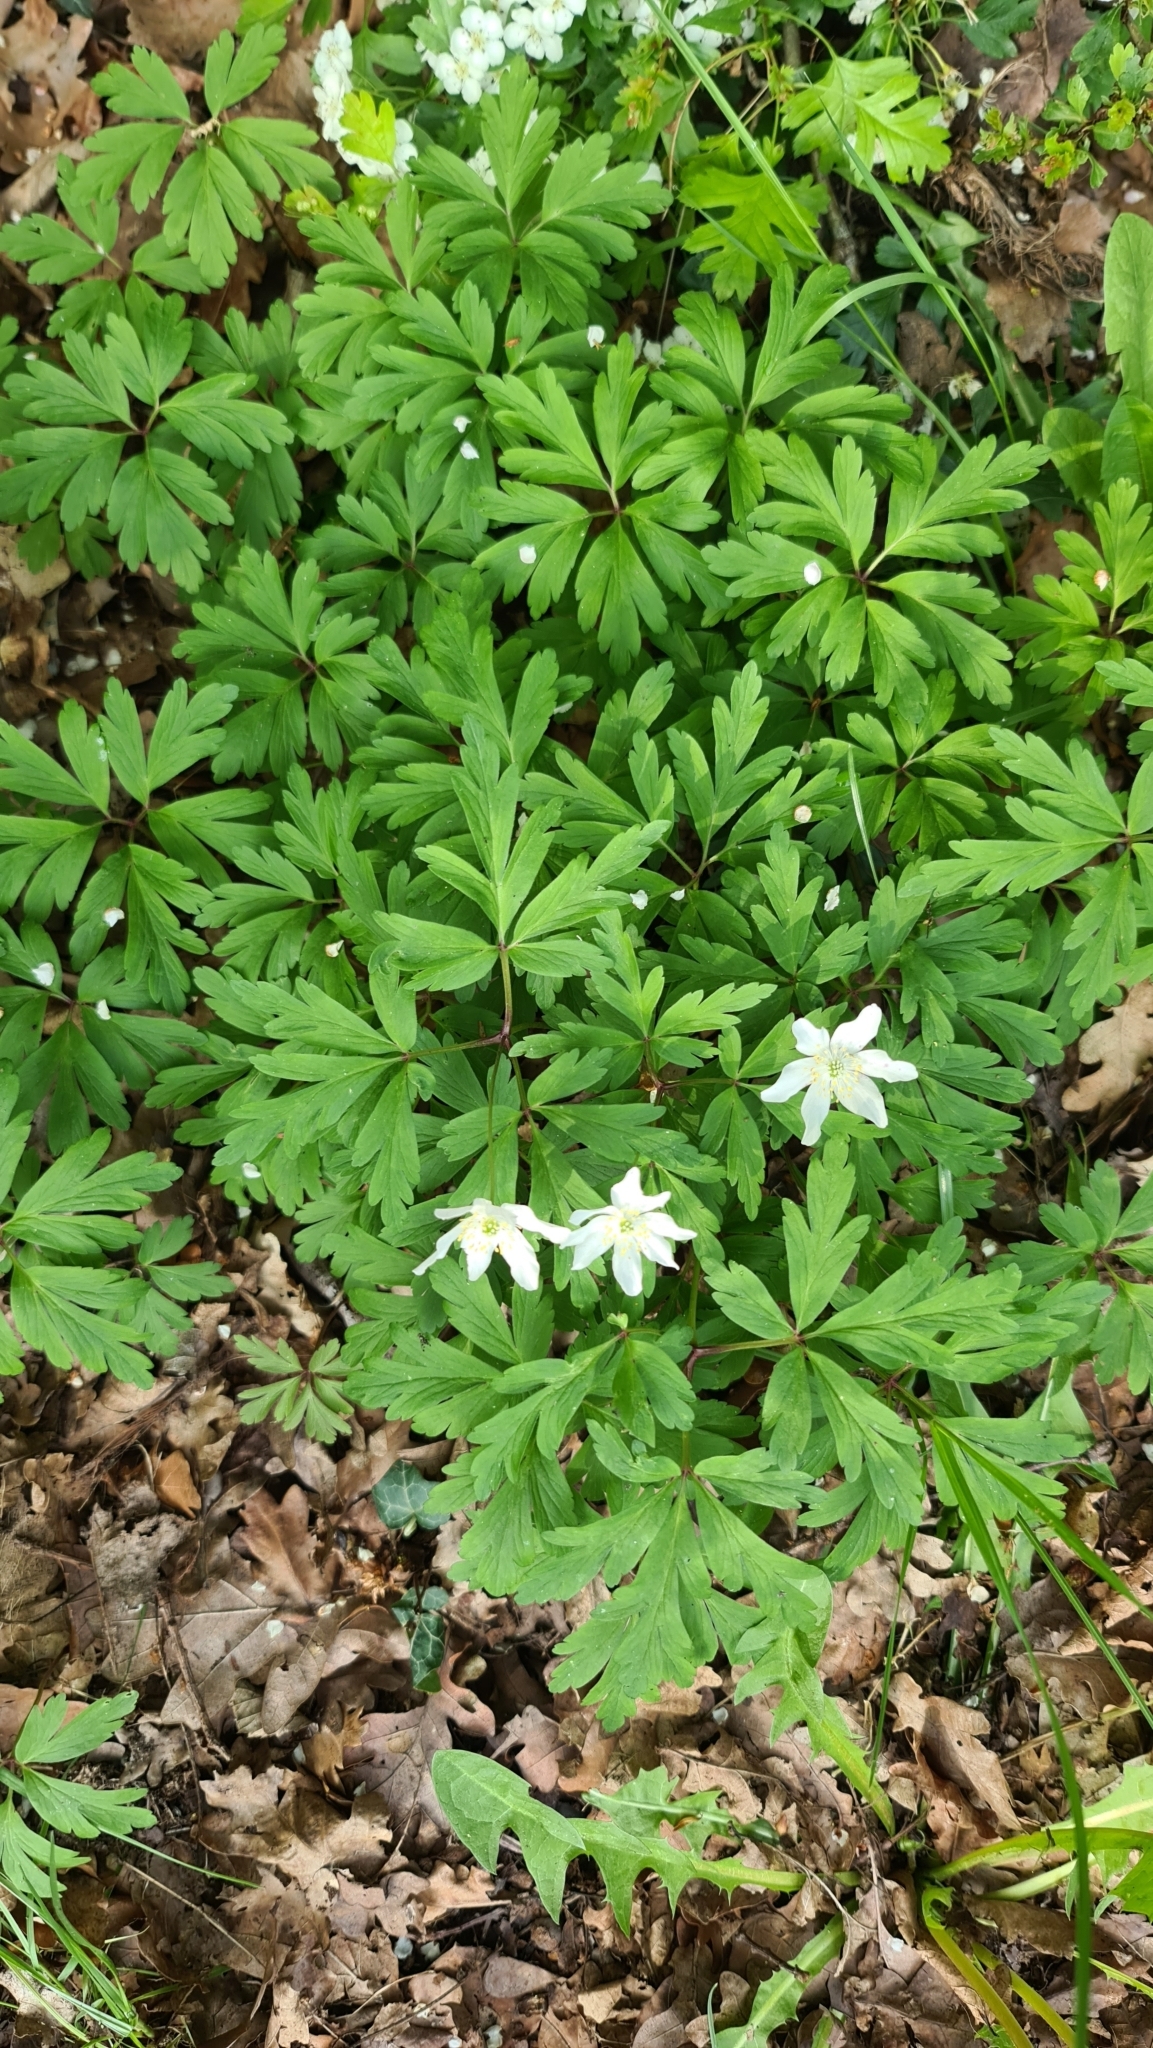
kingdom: Plantae
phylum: Tracheophyta
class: Magnoliopsida
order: Ranunculales
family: Ranunculaceae
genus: Anemone
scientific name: Anemone nemorosa
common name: Wood anemone
